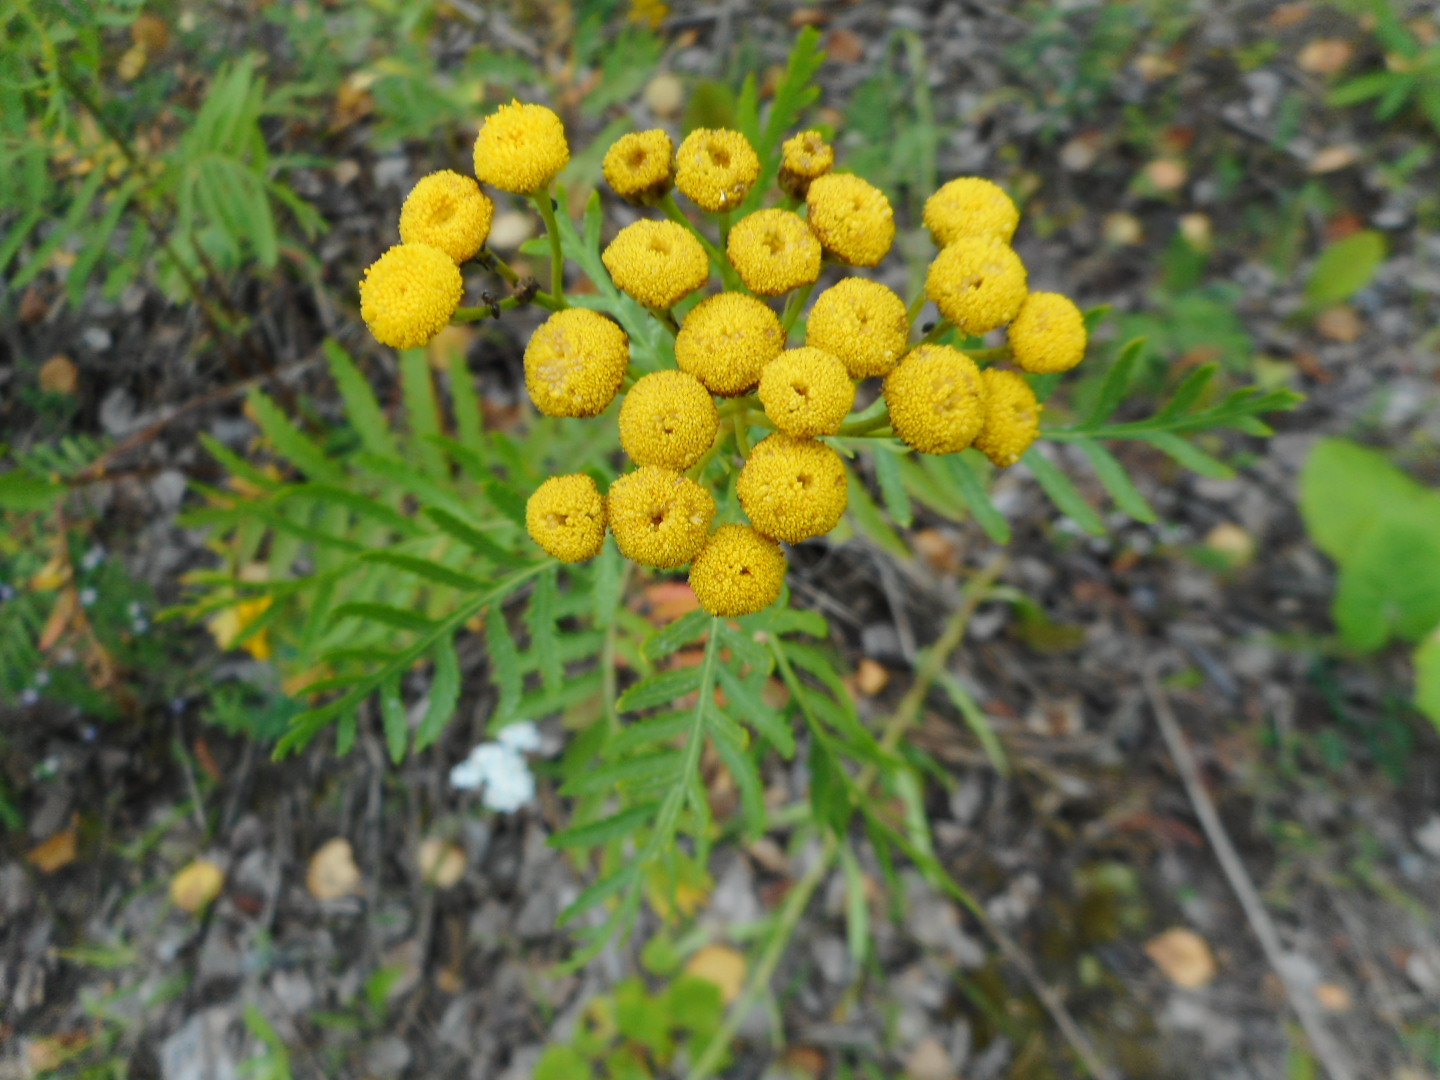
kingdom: Plantae
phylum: Tracheophyta
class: Magnoliopsida
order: Asterales
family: Asteraceae
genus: Tanacetum
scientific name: Tanacetum vulgare
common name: Common tansy
